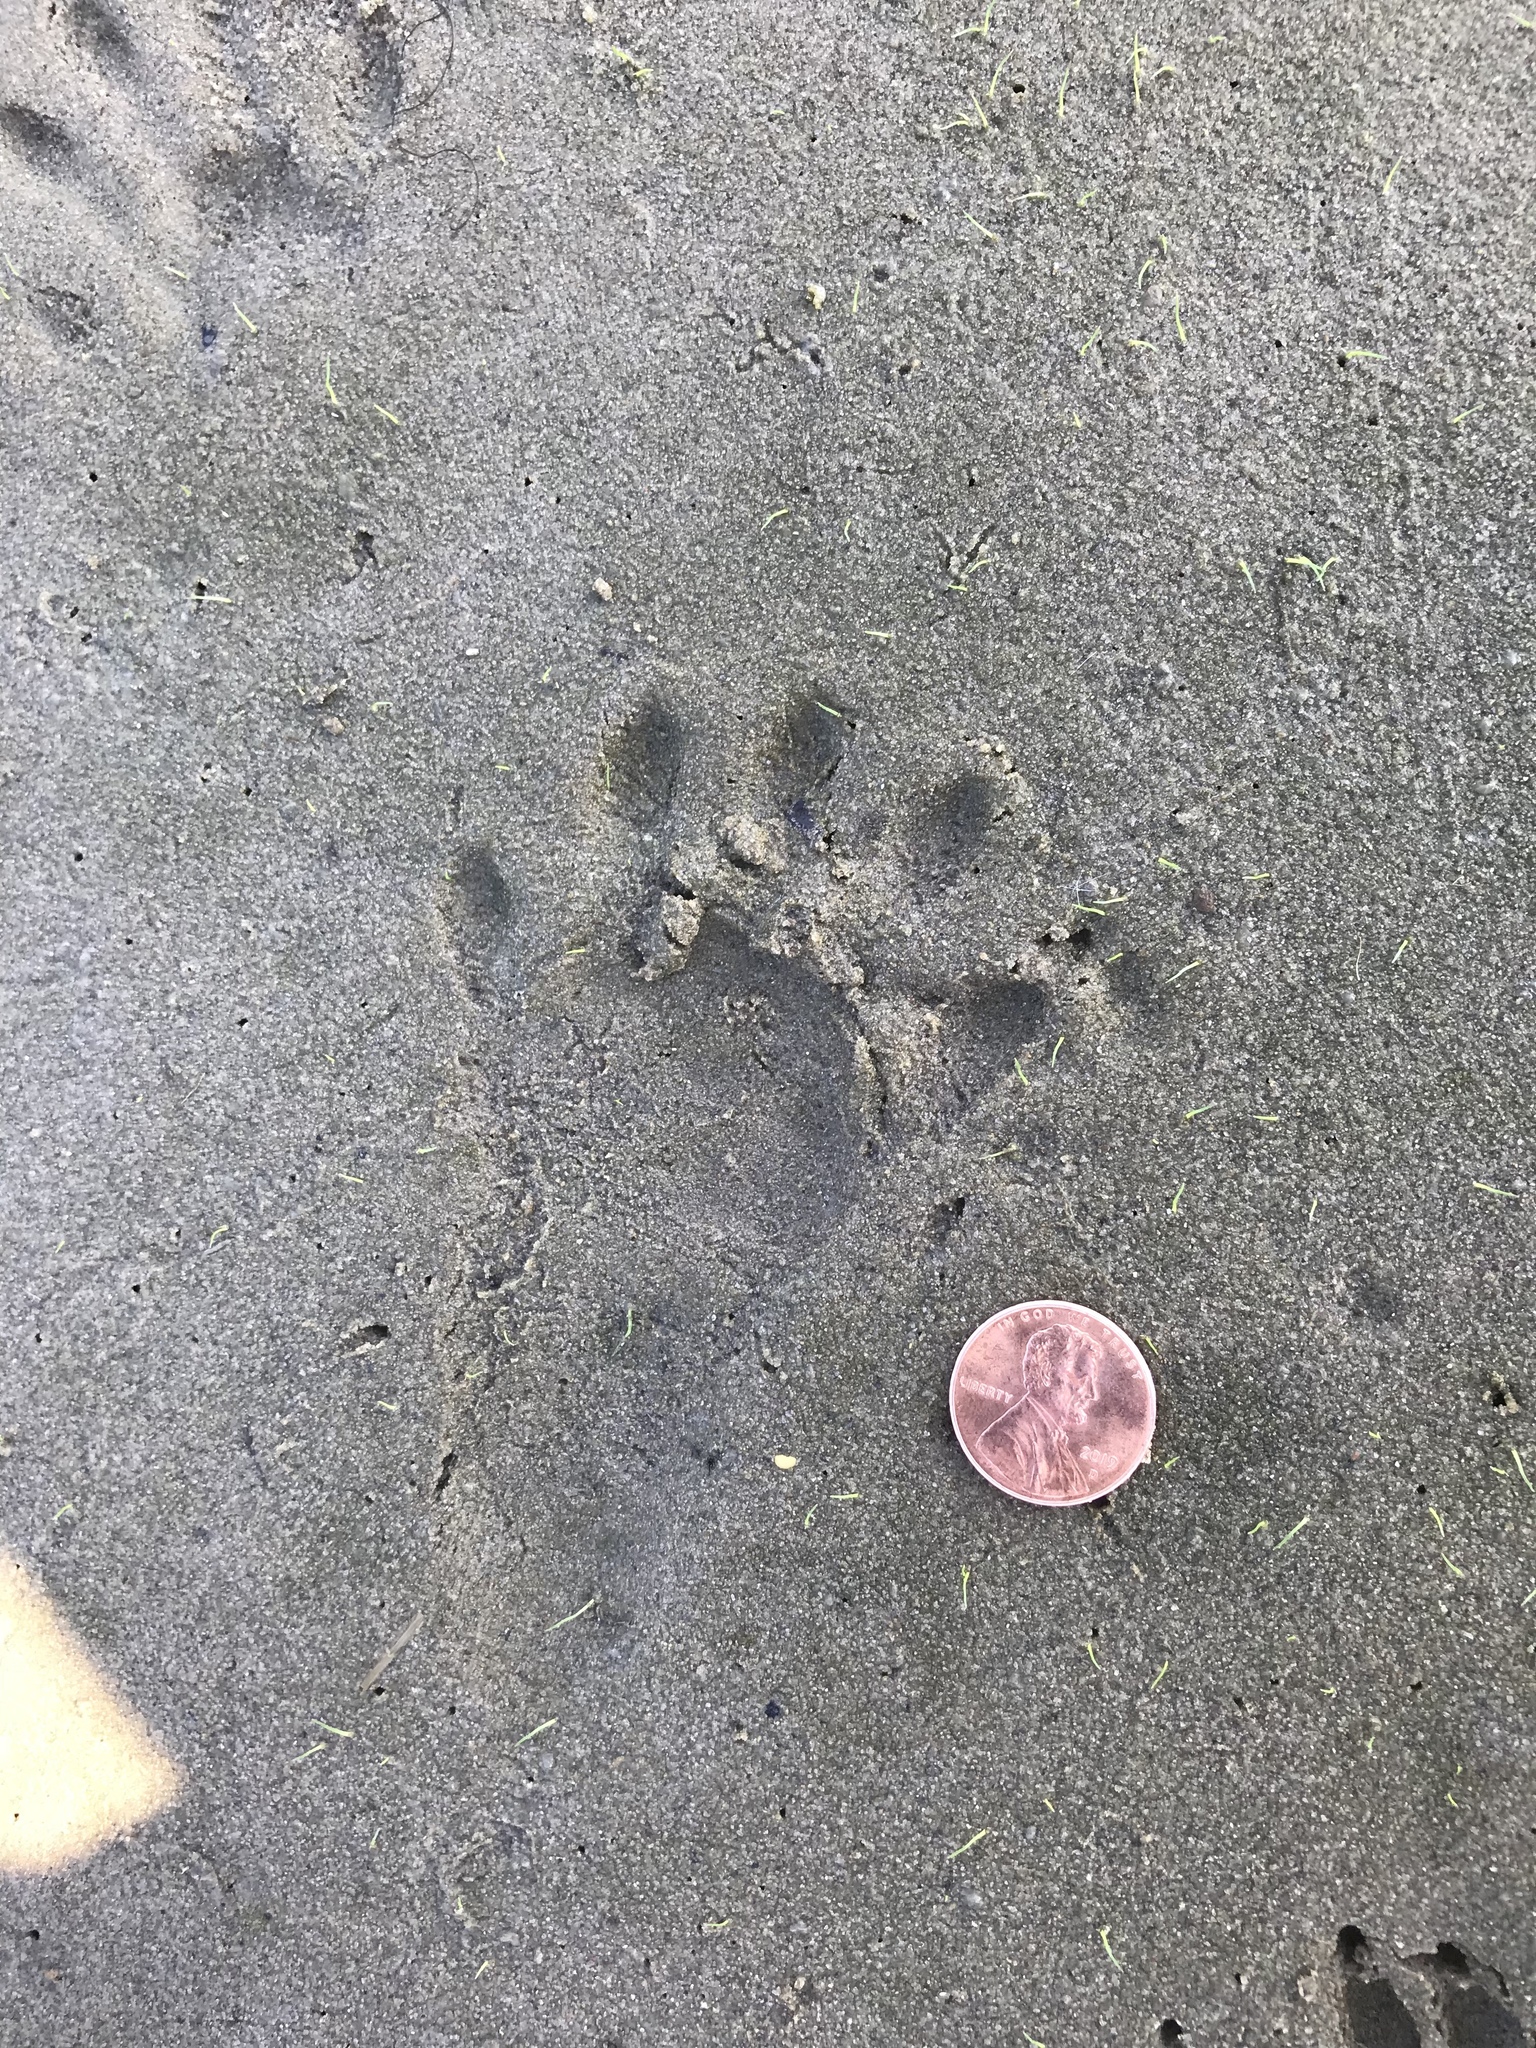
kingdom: Animalia
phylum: Chordata
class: Mammalia
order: Carnivora
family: Procyonidae
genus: Procyon
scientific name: Procyon lotor
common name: Raccoon
